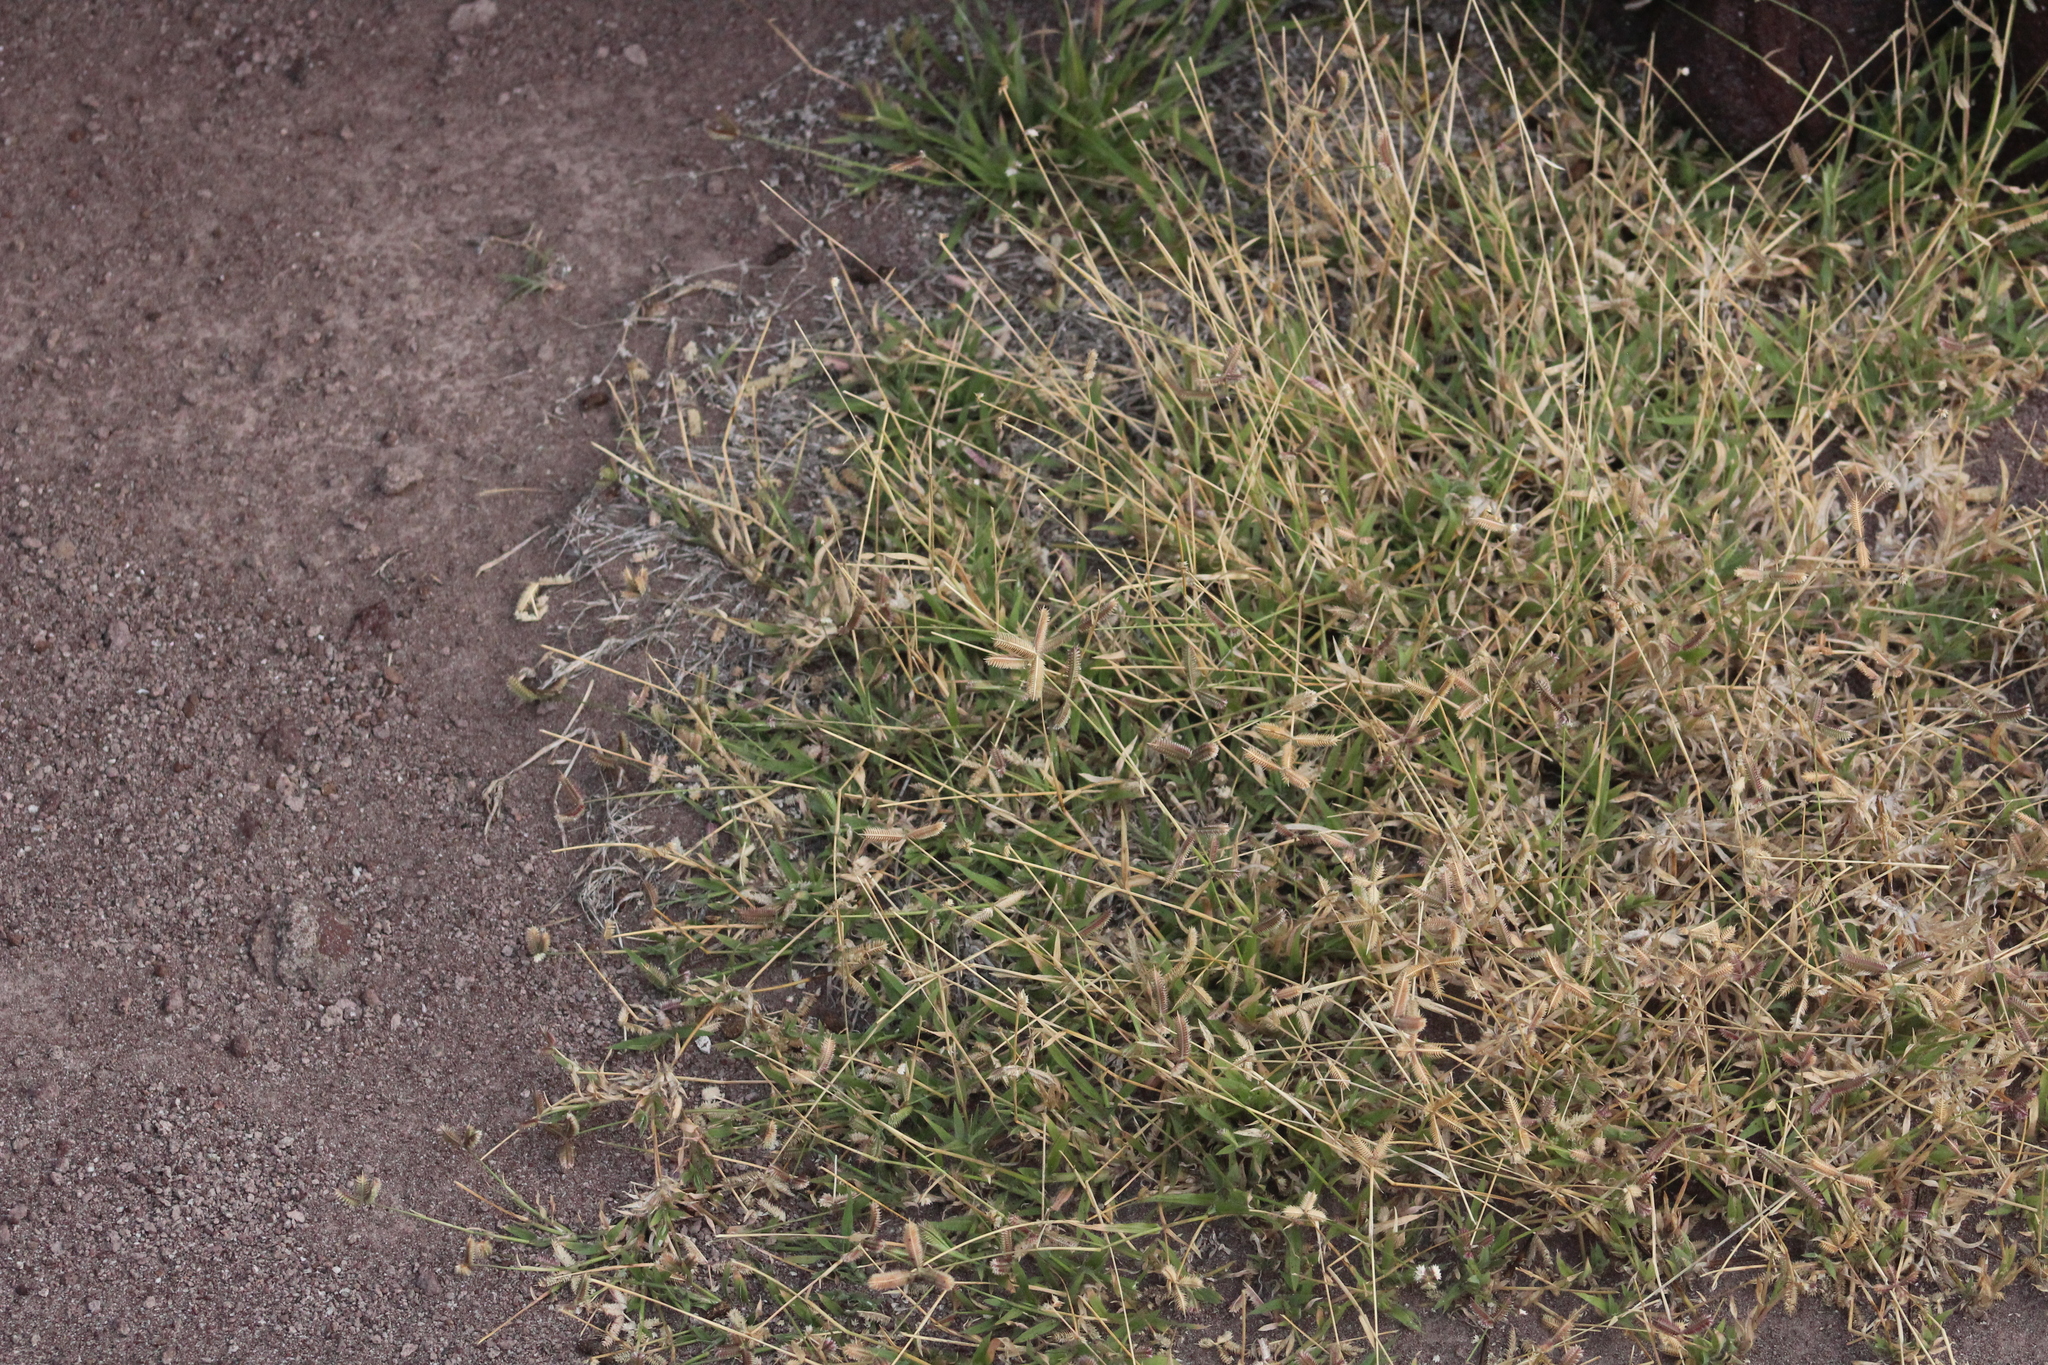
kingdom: Plantae
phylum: Tracheophyta
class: Liliopsida
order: Poales
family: Poaceae
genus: Dactyloctenium
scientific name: Dactyloctenium aegyptium
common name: Egyptian grass
